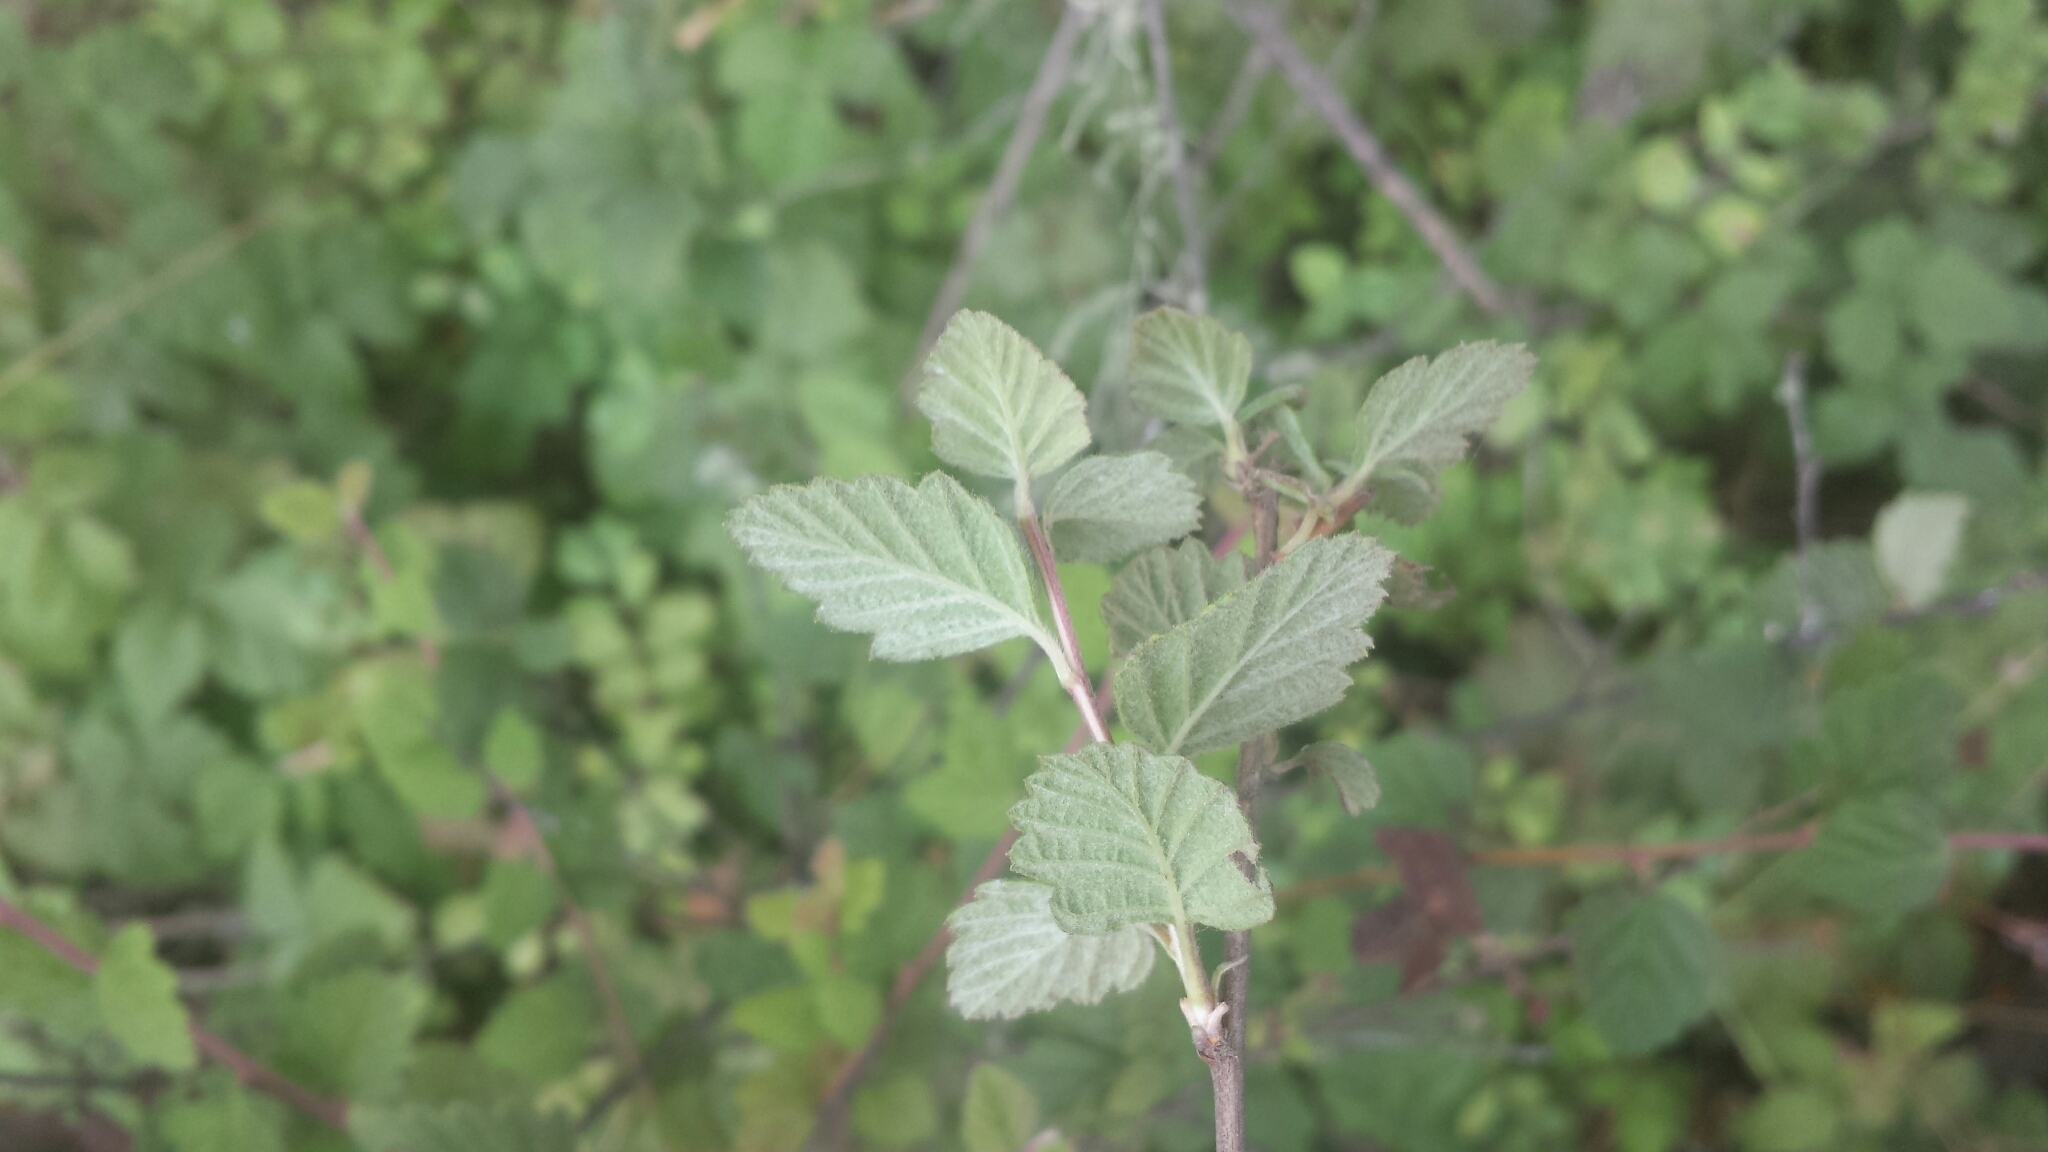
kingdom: Plantae
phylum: Tracheophyta
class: Magnoliopsida
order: Rosales
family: Rosaceae
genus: Holodiscus
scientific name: Holodiscus discolor
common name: Oceanspray
